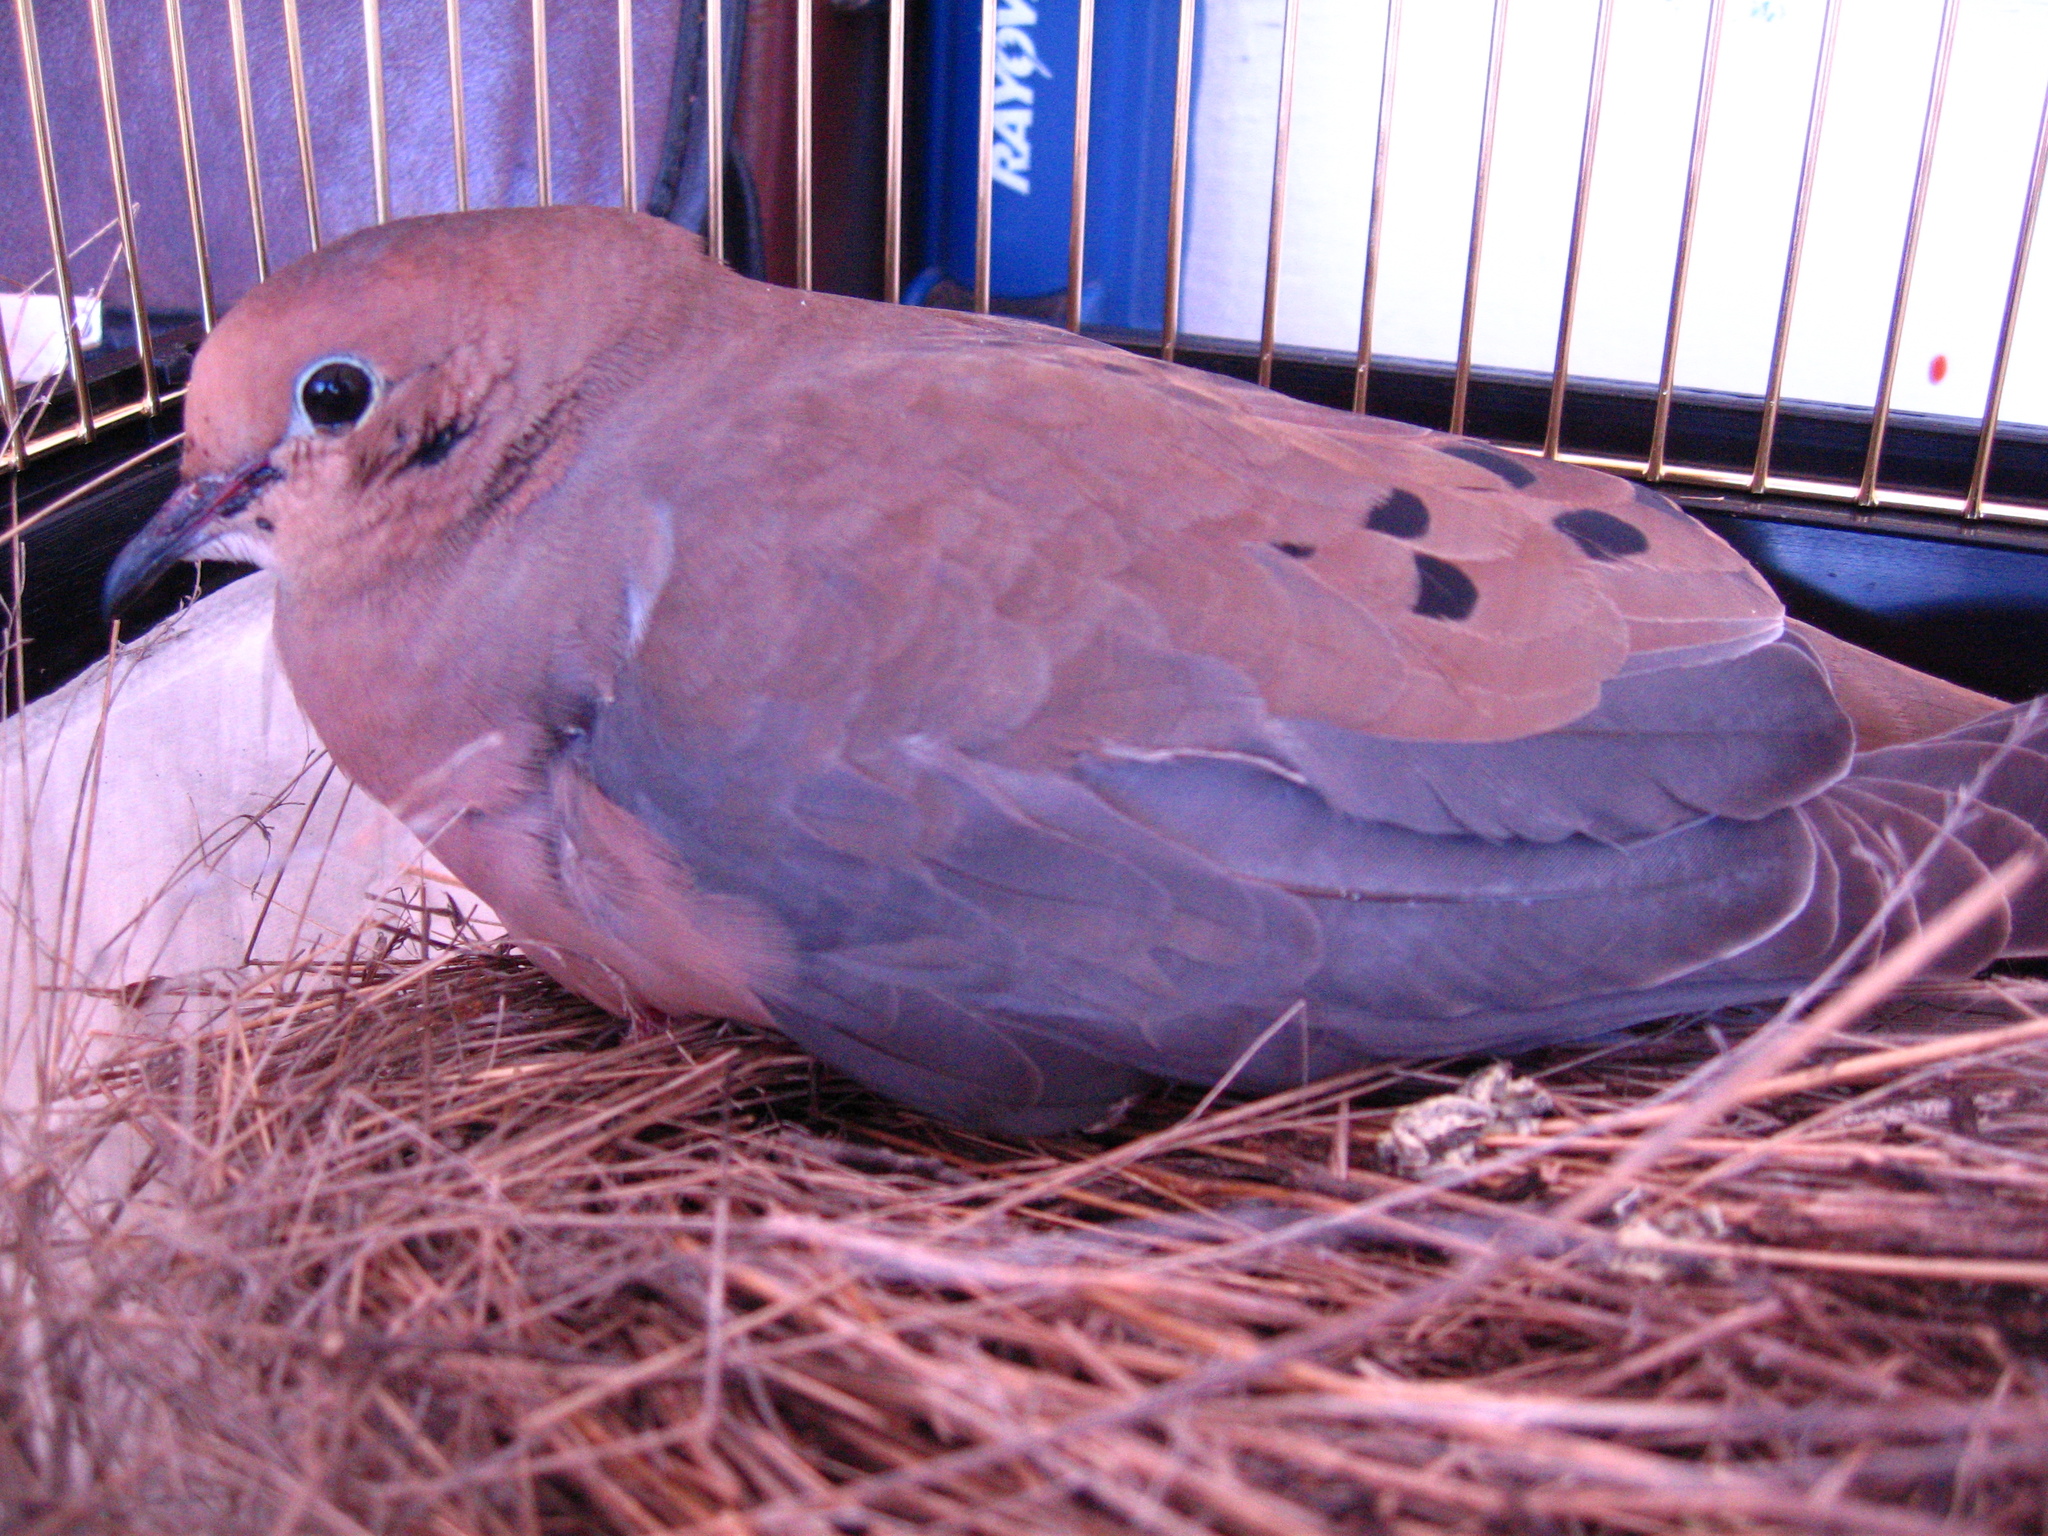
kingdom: Animalia
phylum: Chordata
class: Aves
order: Columbiformes
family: Columbidae
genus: Zenaida
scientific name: Zenaida macroura
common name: Mourning dove
